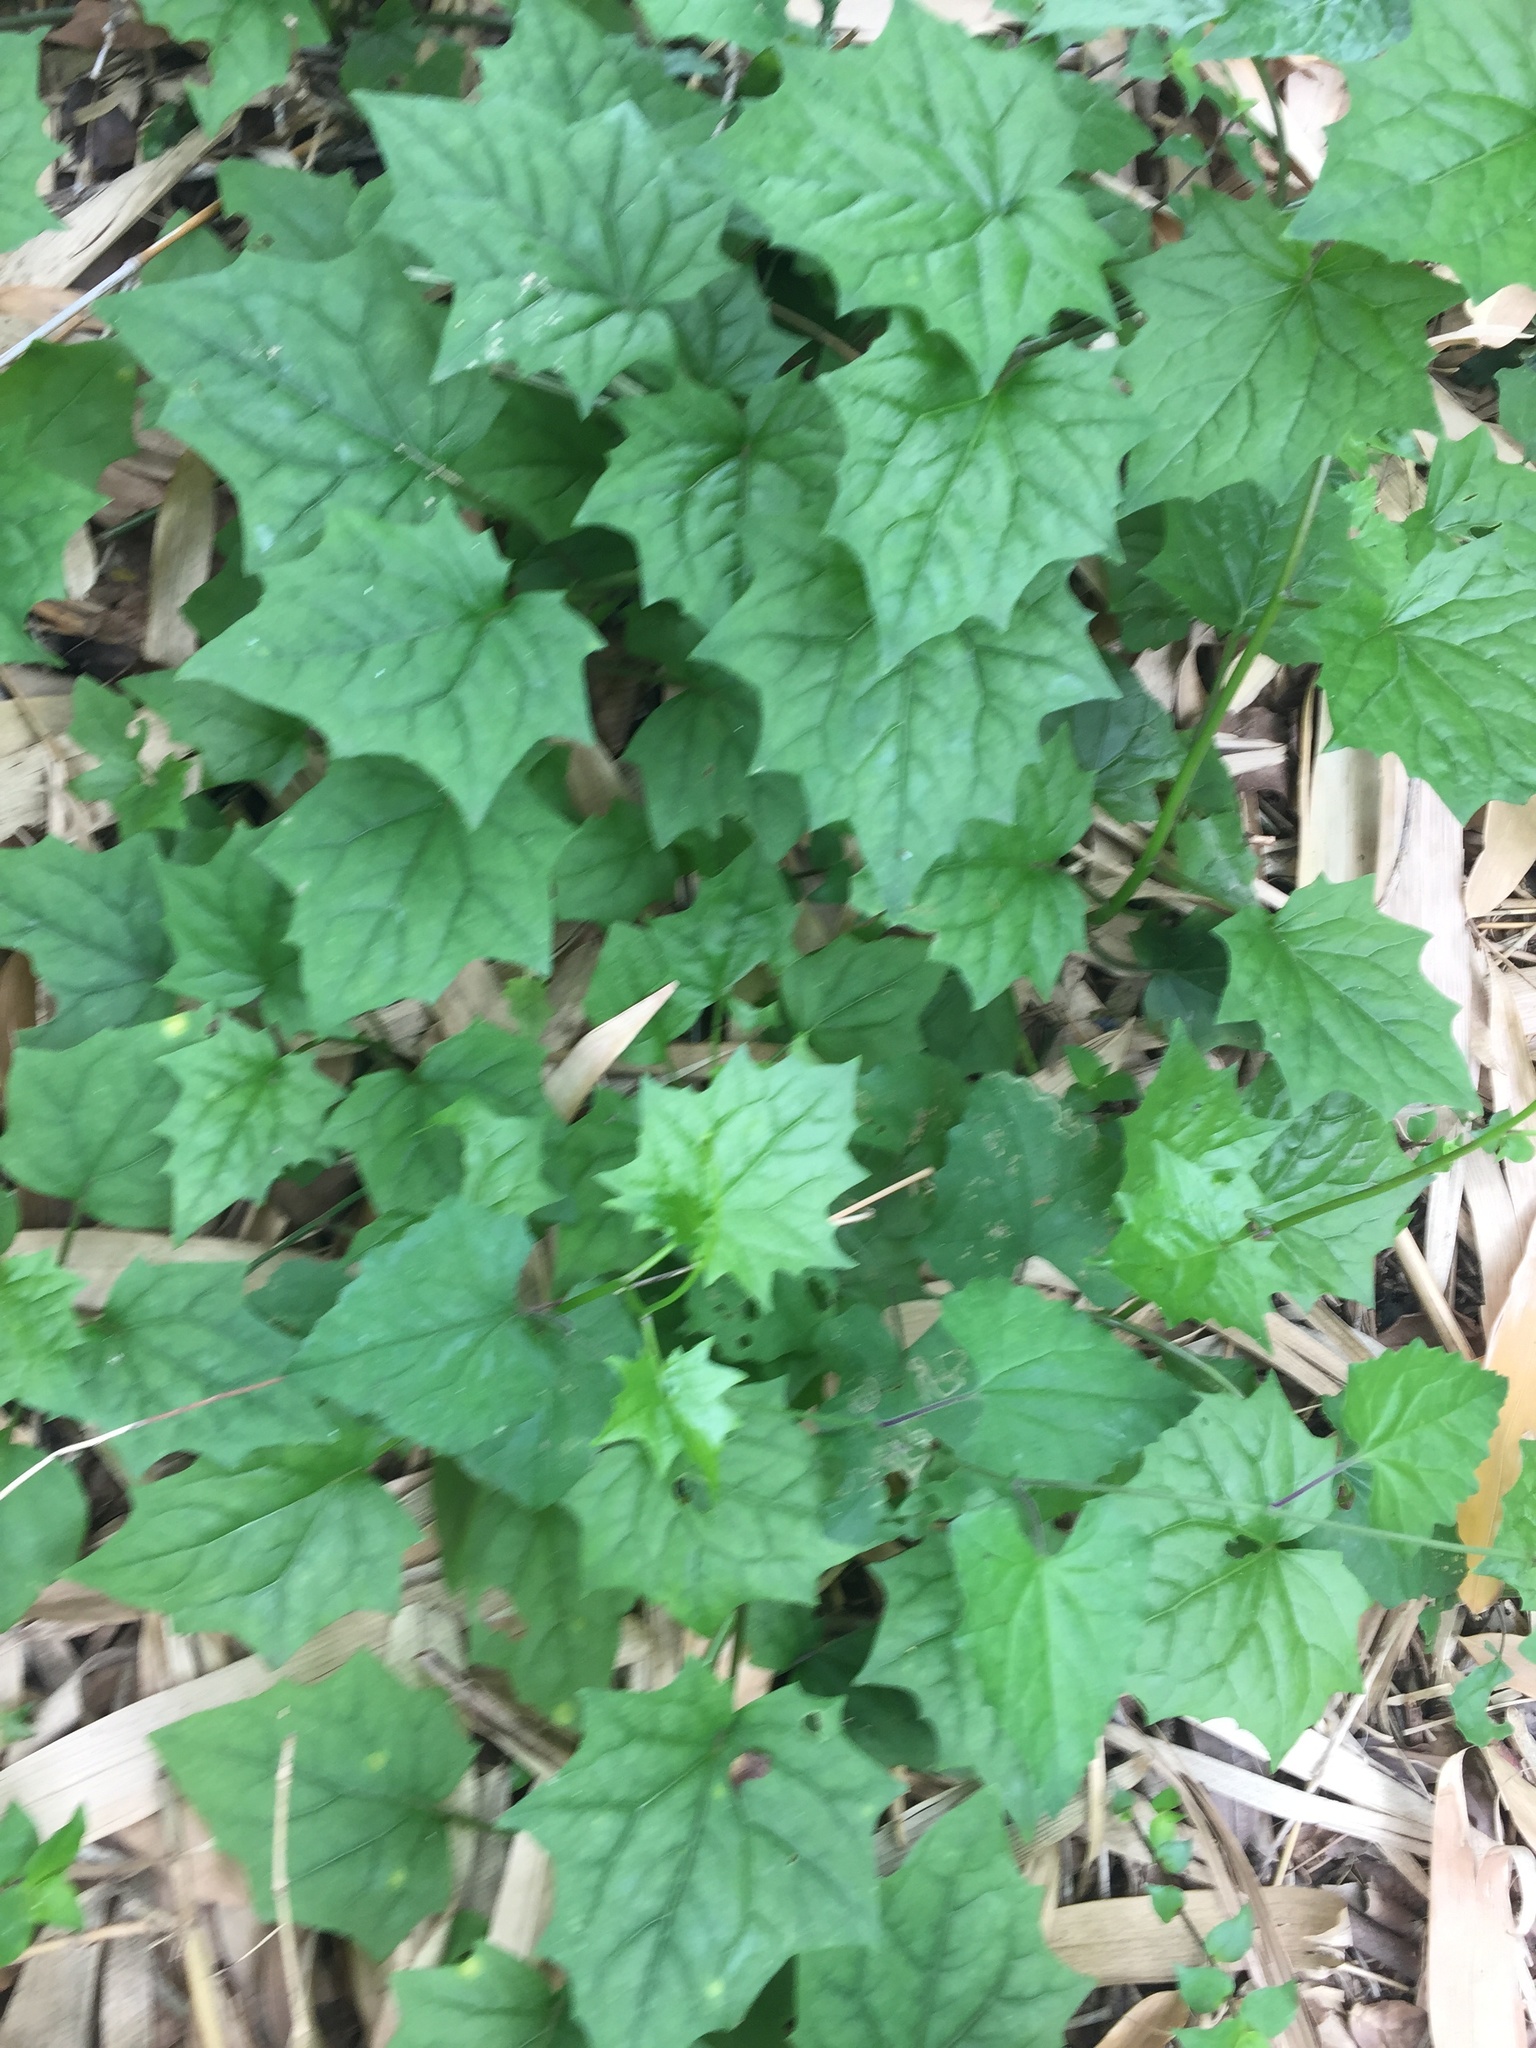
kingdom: Plantae
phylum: Tracheophyta
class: Magnoliopsida
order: Asterales
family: Asteraceae
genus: Senecio
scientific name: Senecio tamoides
